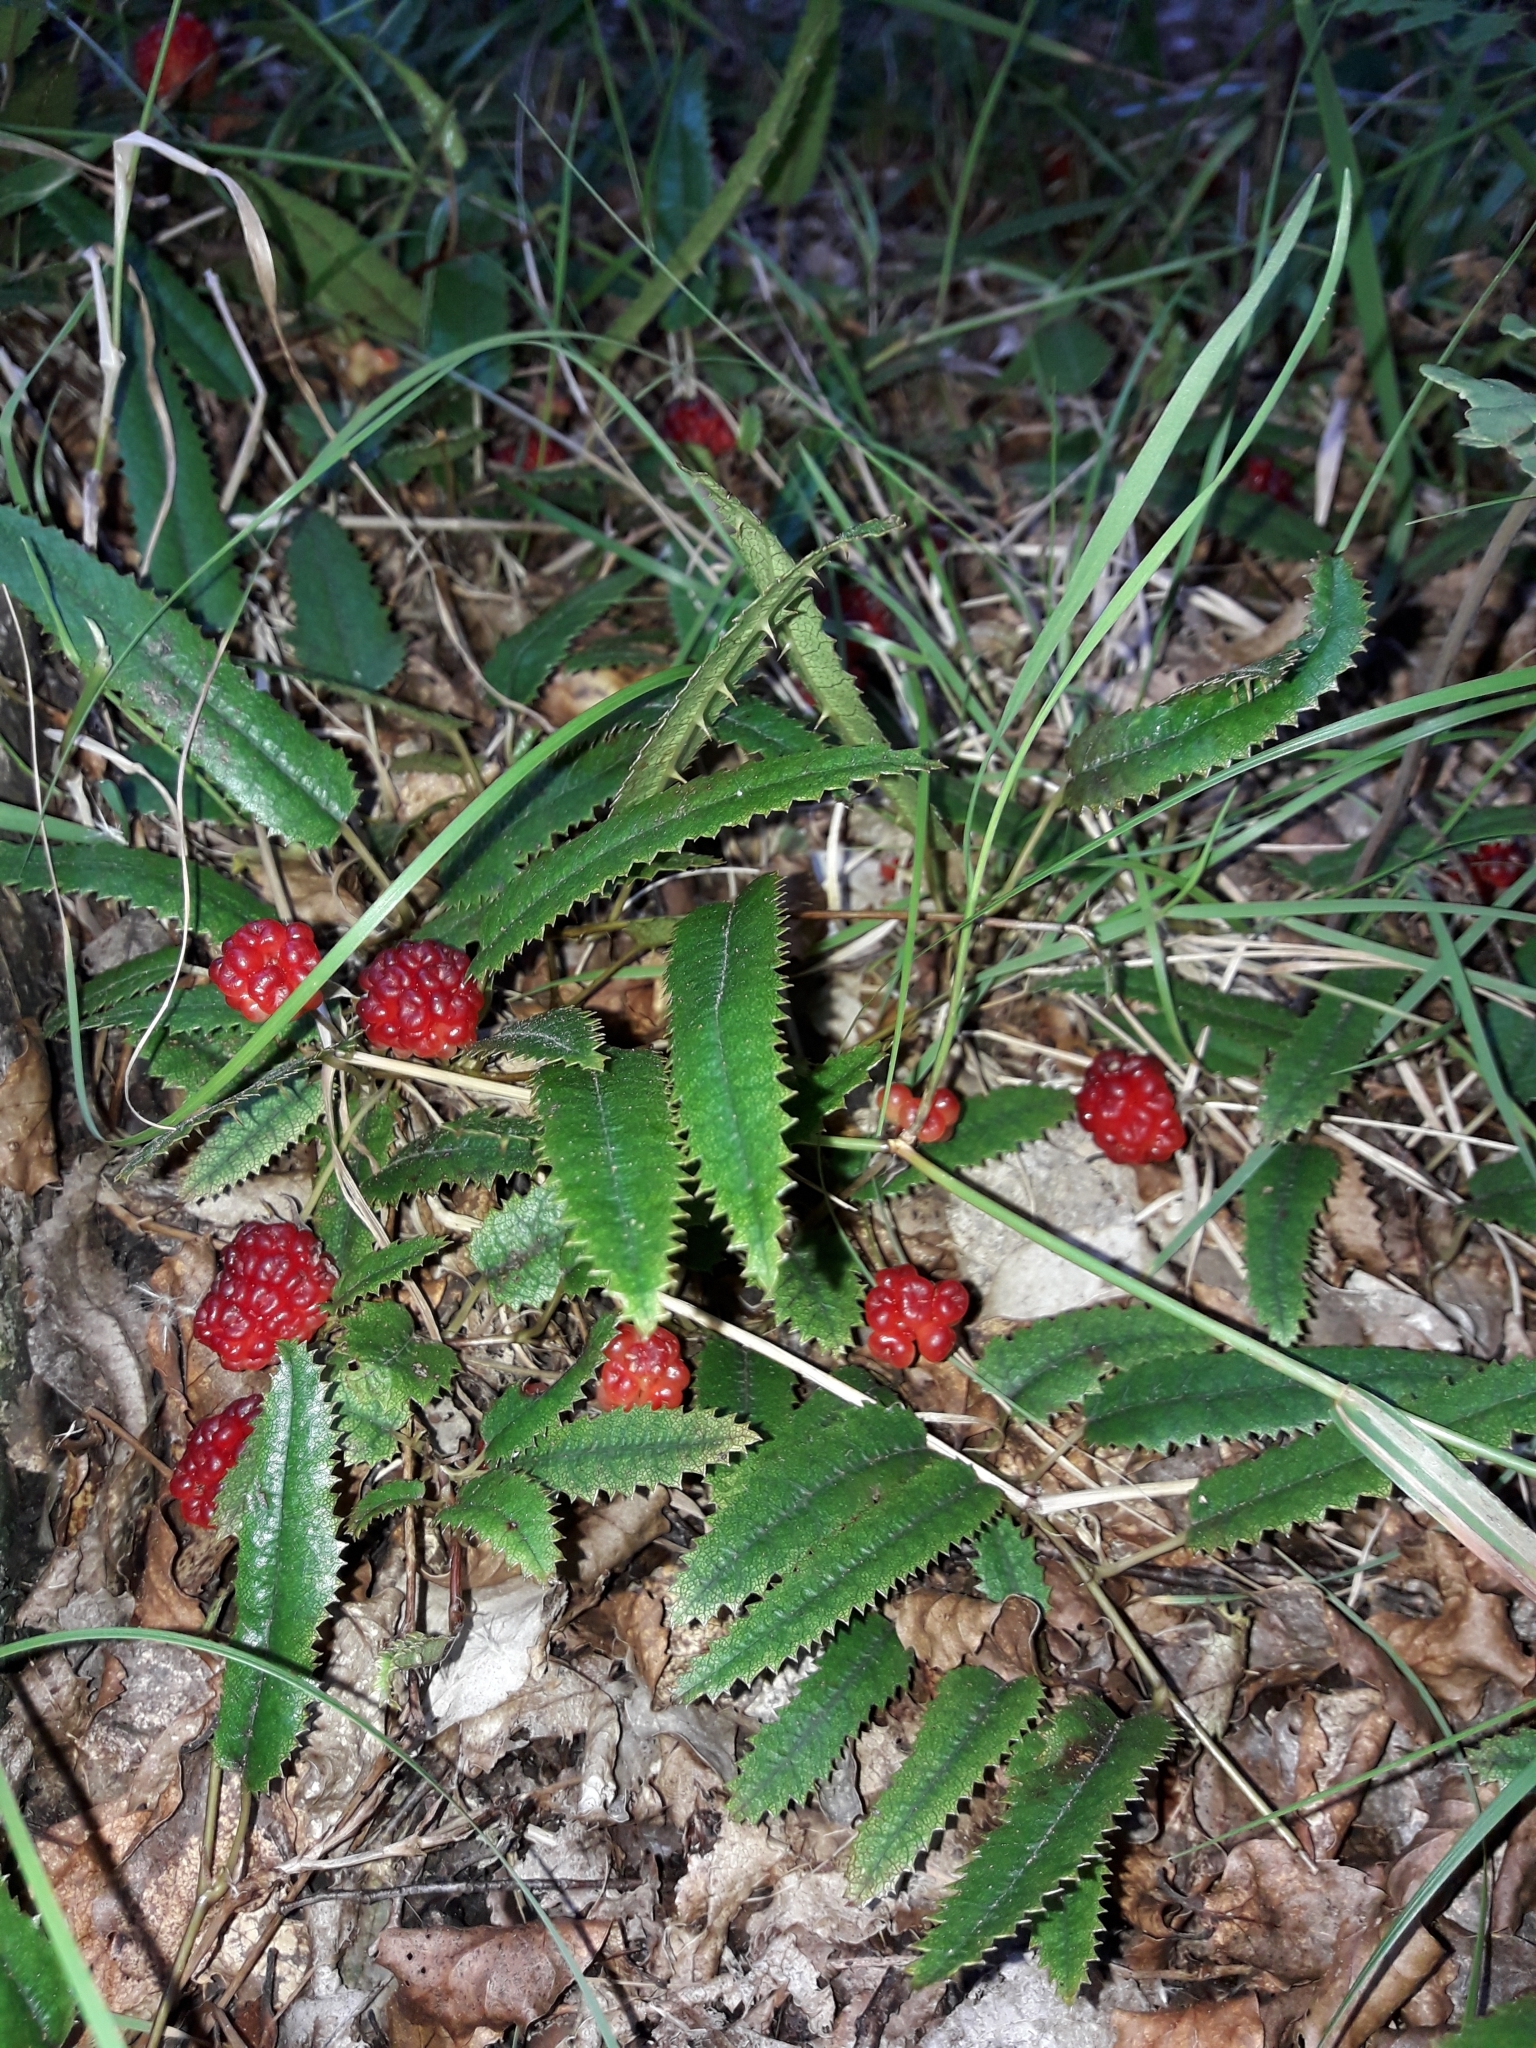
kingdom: Plantae
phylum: Tracheophyta
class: Magnoliopsida
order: Rosales
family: Rosaceae
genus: Rubus
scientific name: Rubus parvus
